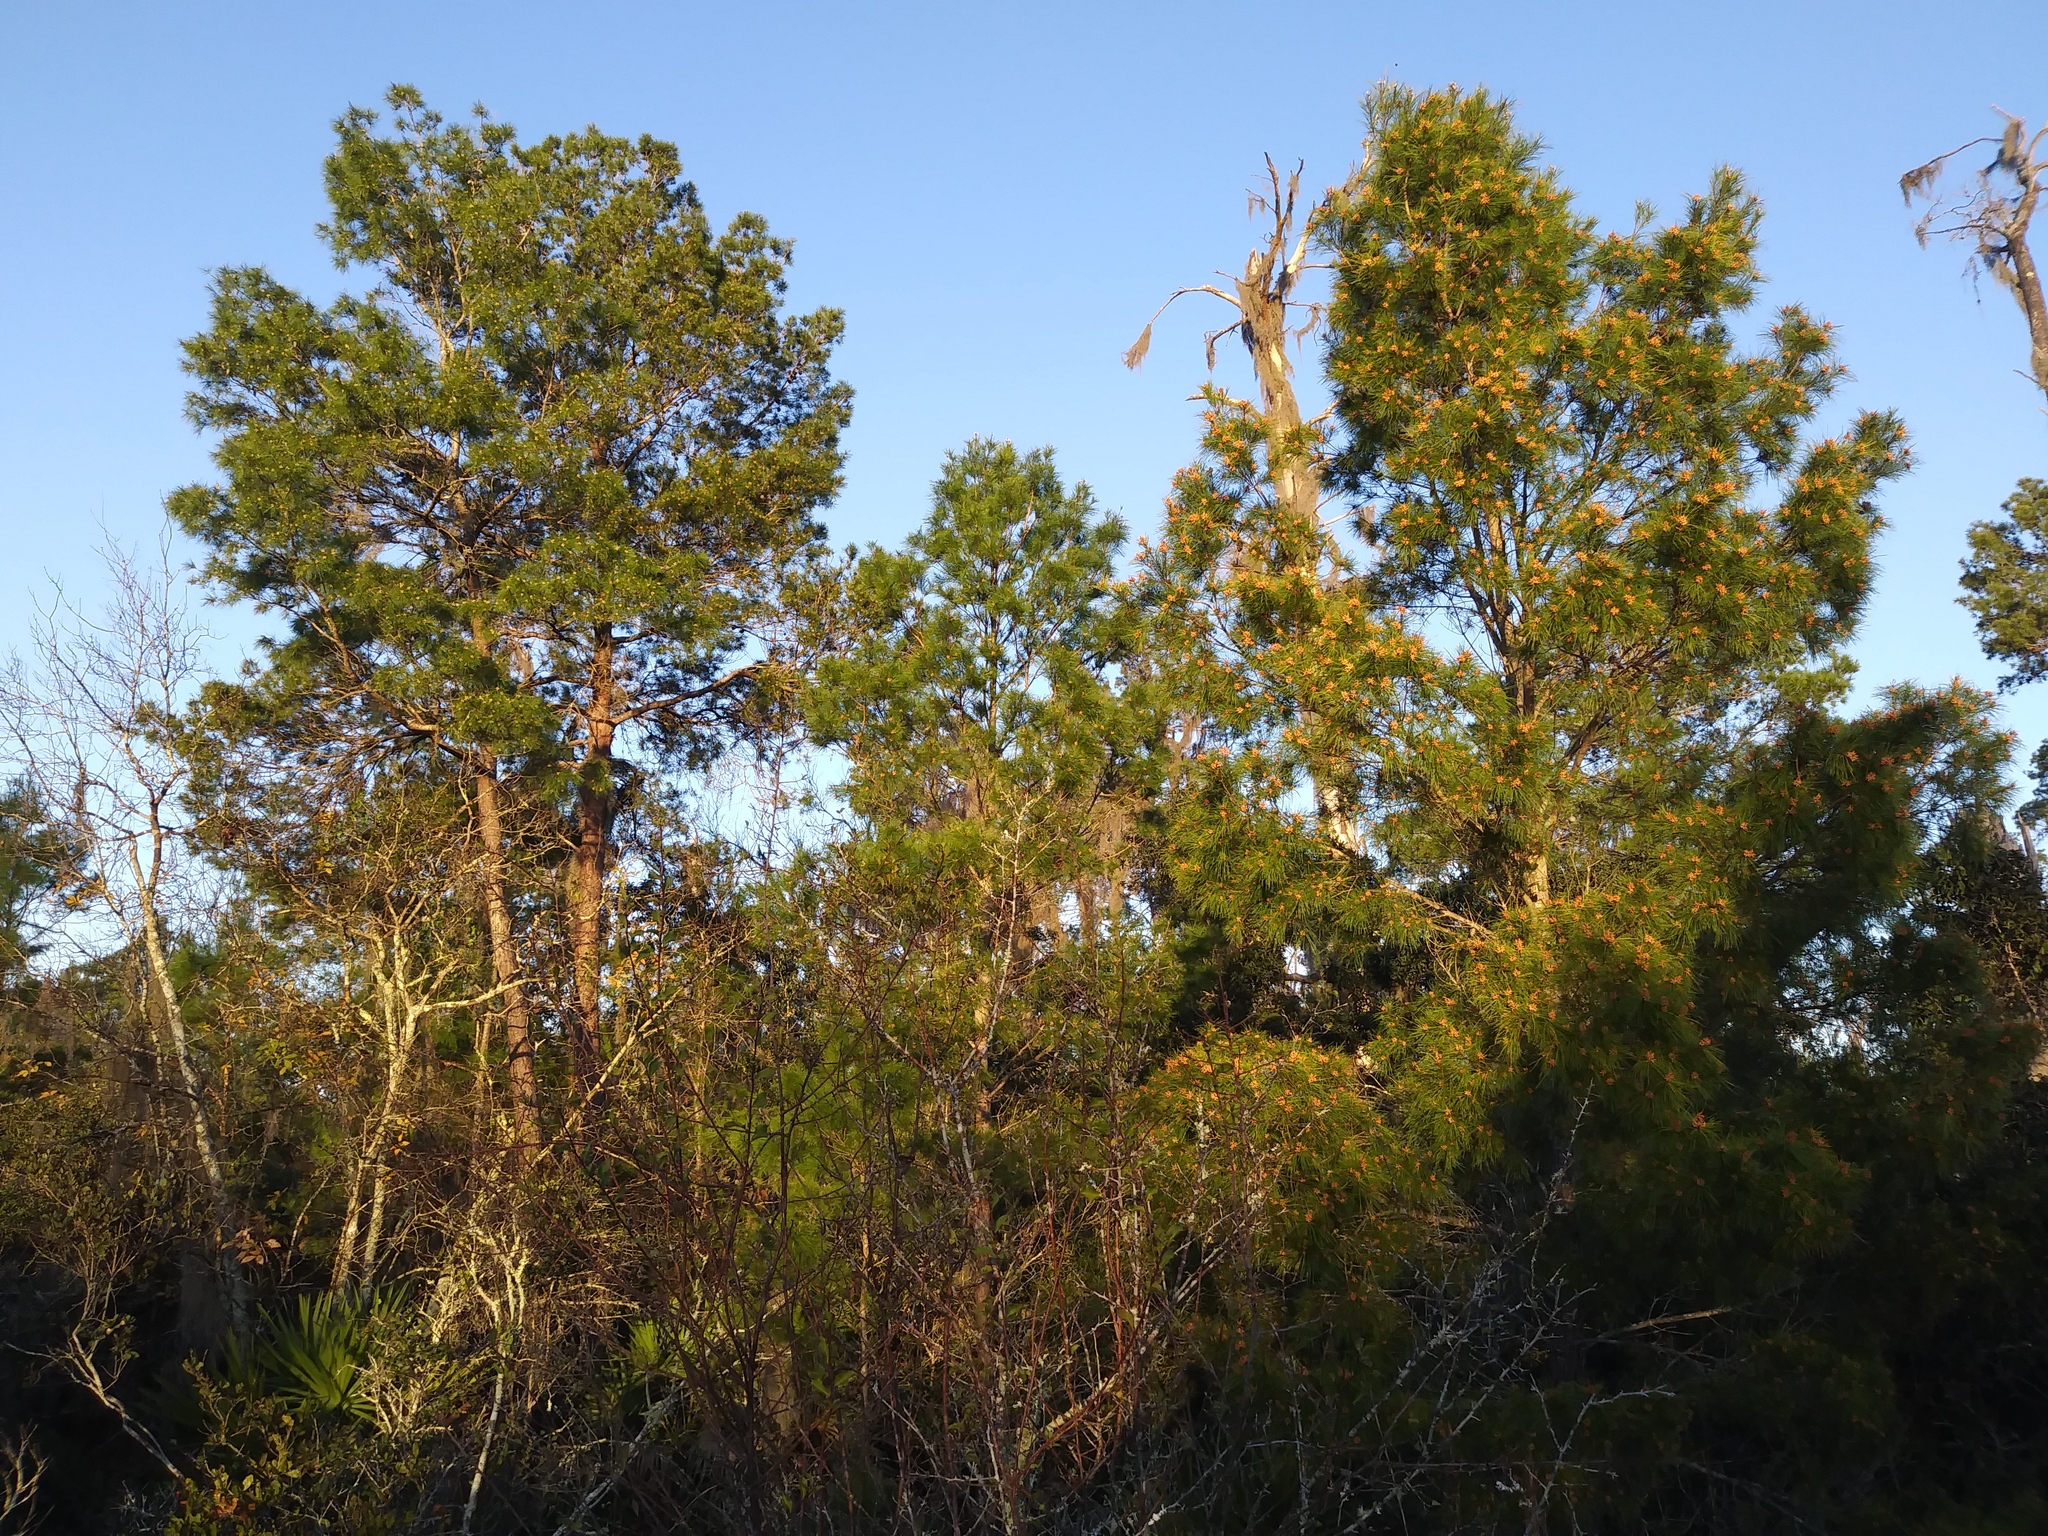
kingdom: Plantae
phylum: Tracheophyta
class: Pinopsida
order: Pinales
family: Pinaceae
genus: Pinus
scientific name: Pinus clausa
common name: Sand pine
